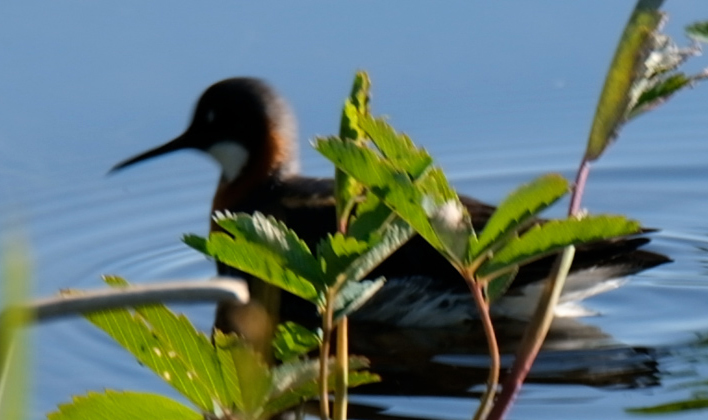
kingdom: Animalia
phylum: Chordata
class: Aves
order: Charadriiformes
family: Scolopacidae
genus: Phalaropus
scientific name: Phalaropus lobatus
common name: Red-necked phalarope
